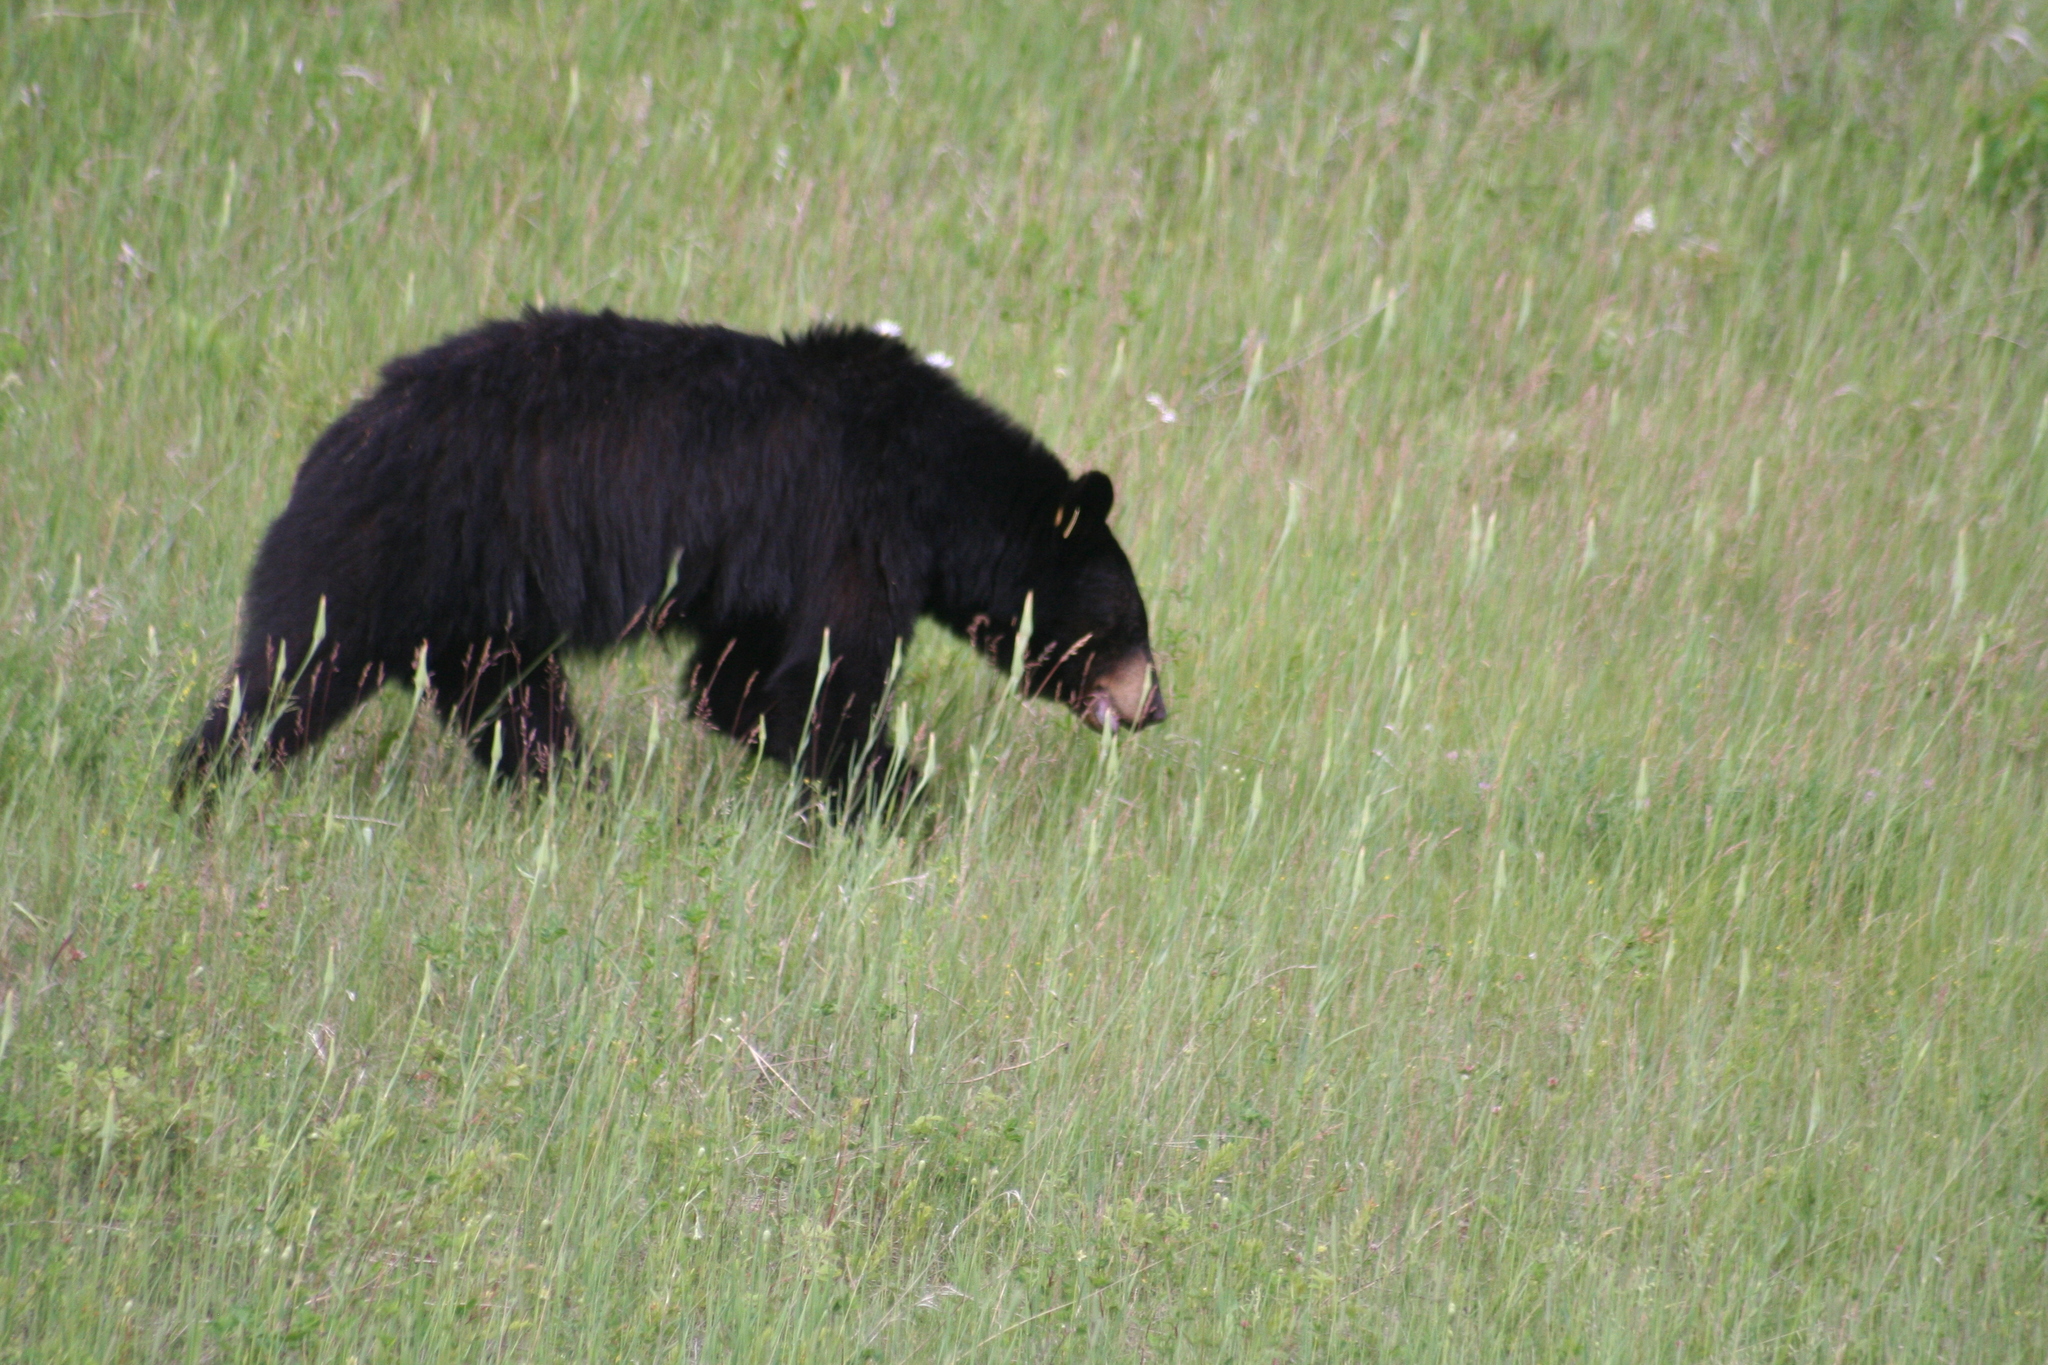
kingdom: Animalia
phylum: Chordata
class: Mammalia
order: Carnivora
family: Ursidae
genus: Ursus
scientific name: Ursus americanus
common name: American black bear
